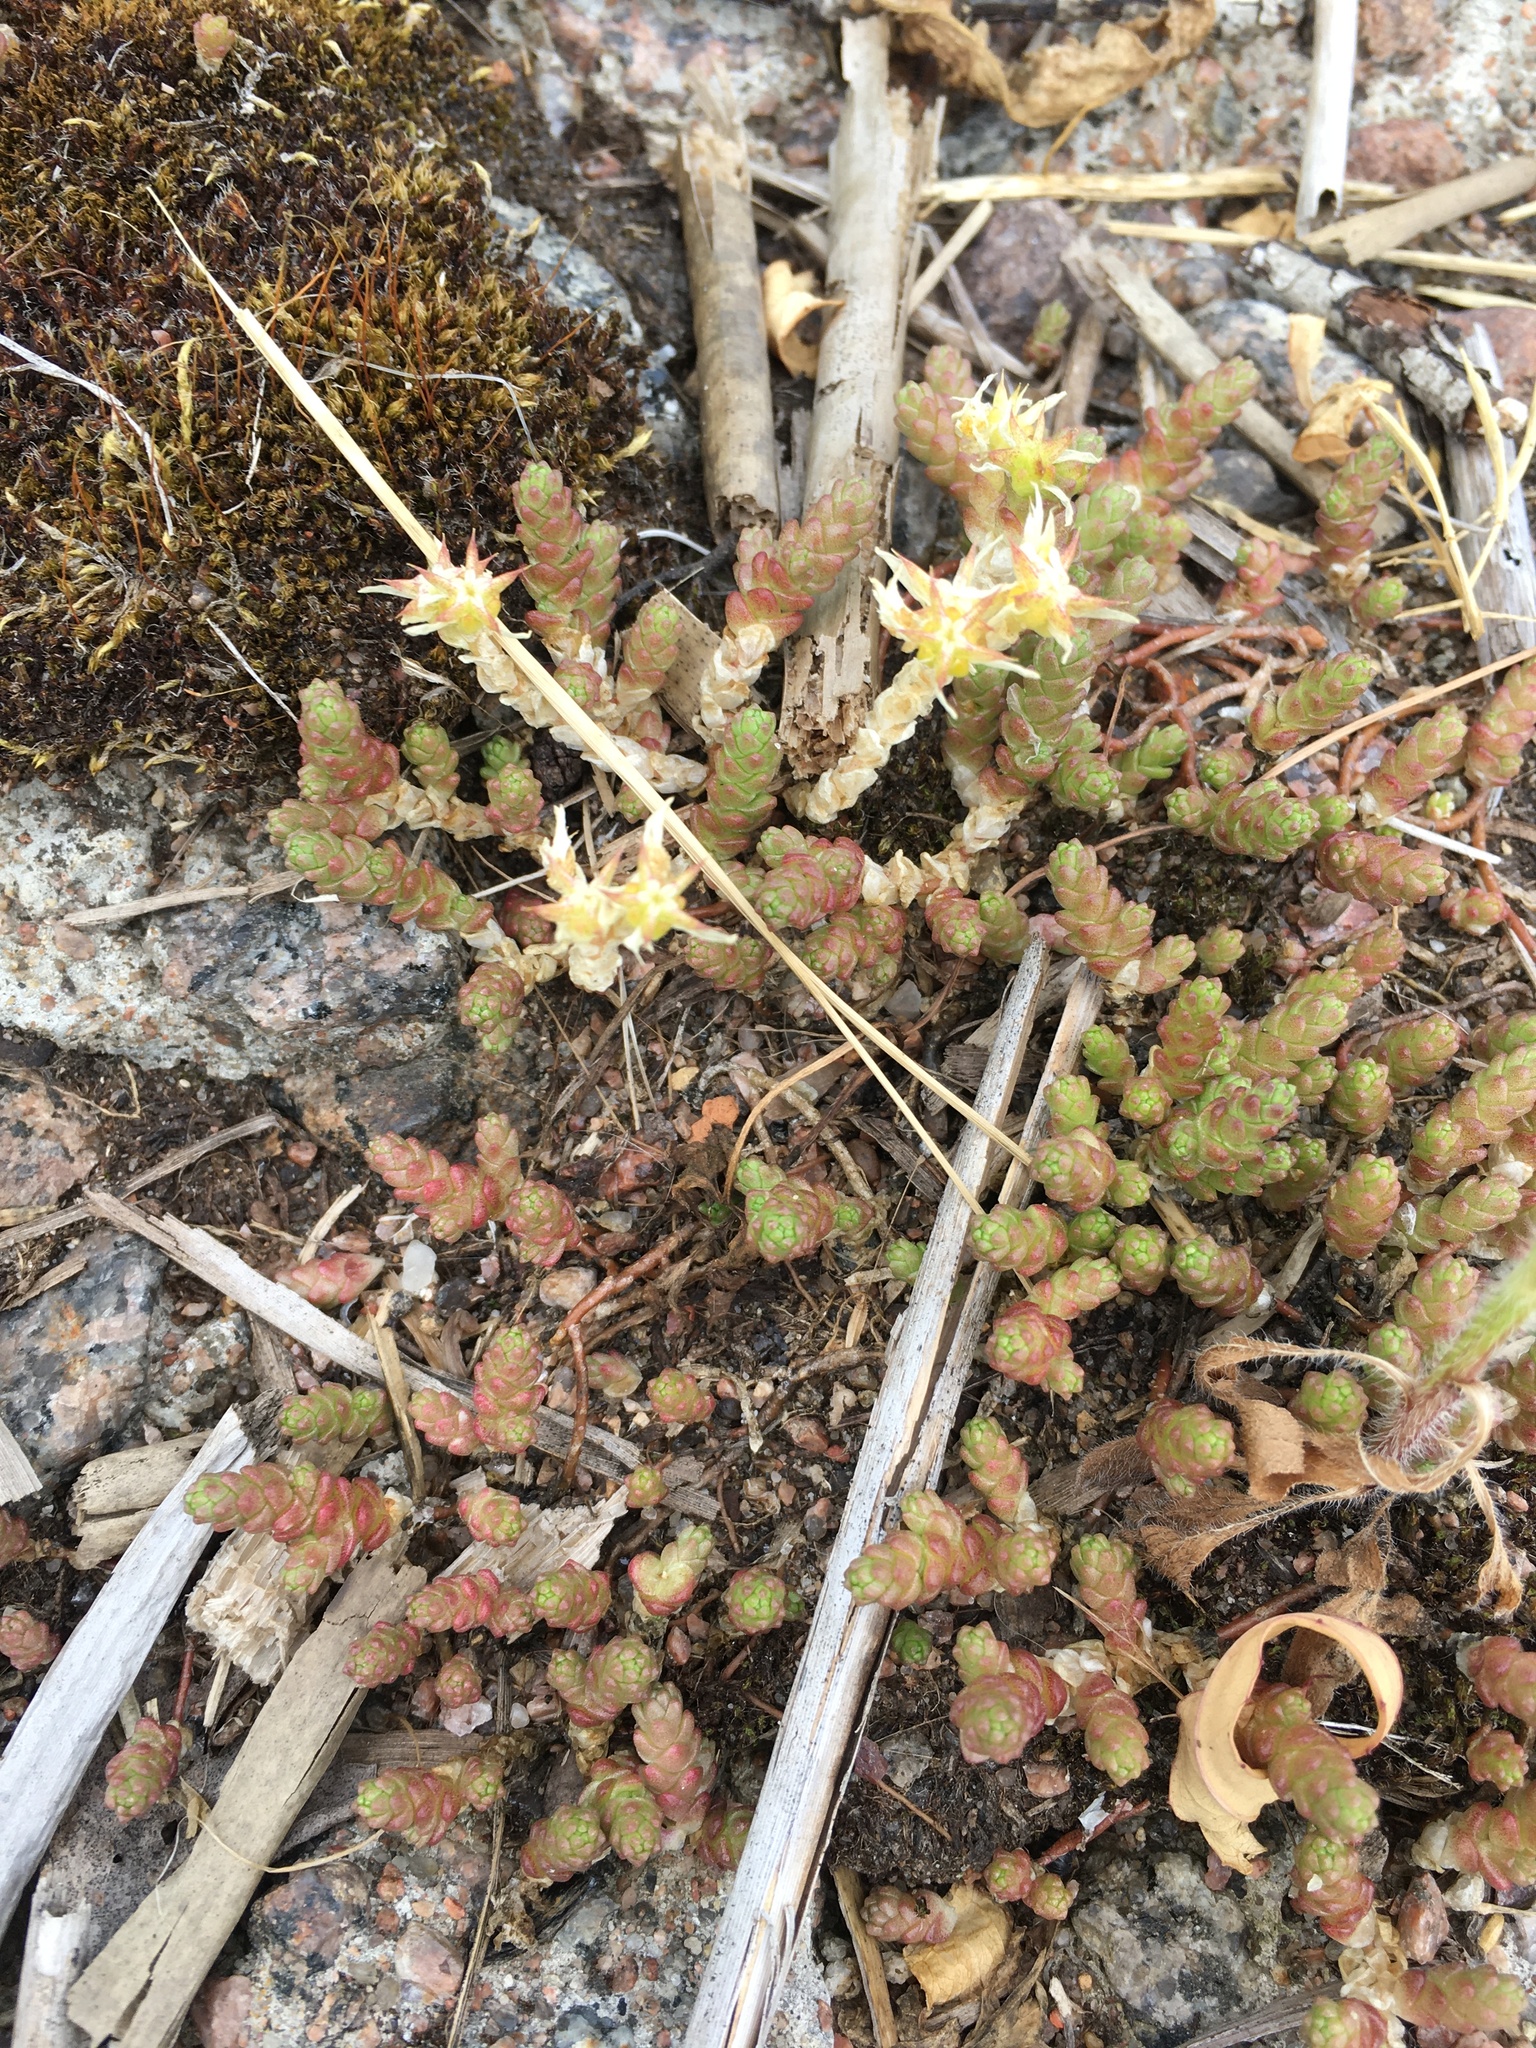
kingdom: Plantae
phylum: Tracheophyta
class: Magnoliopsida
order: Saxifragales
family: Crassulaceae
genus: Sedum
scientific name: Sedum acre
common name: Biting stonecrop
